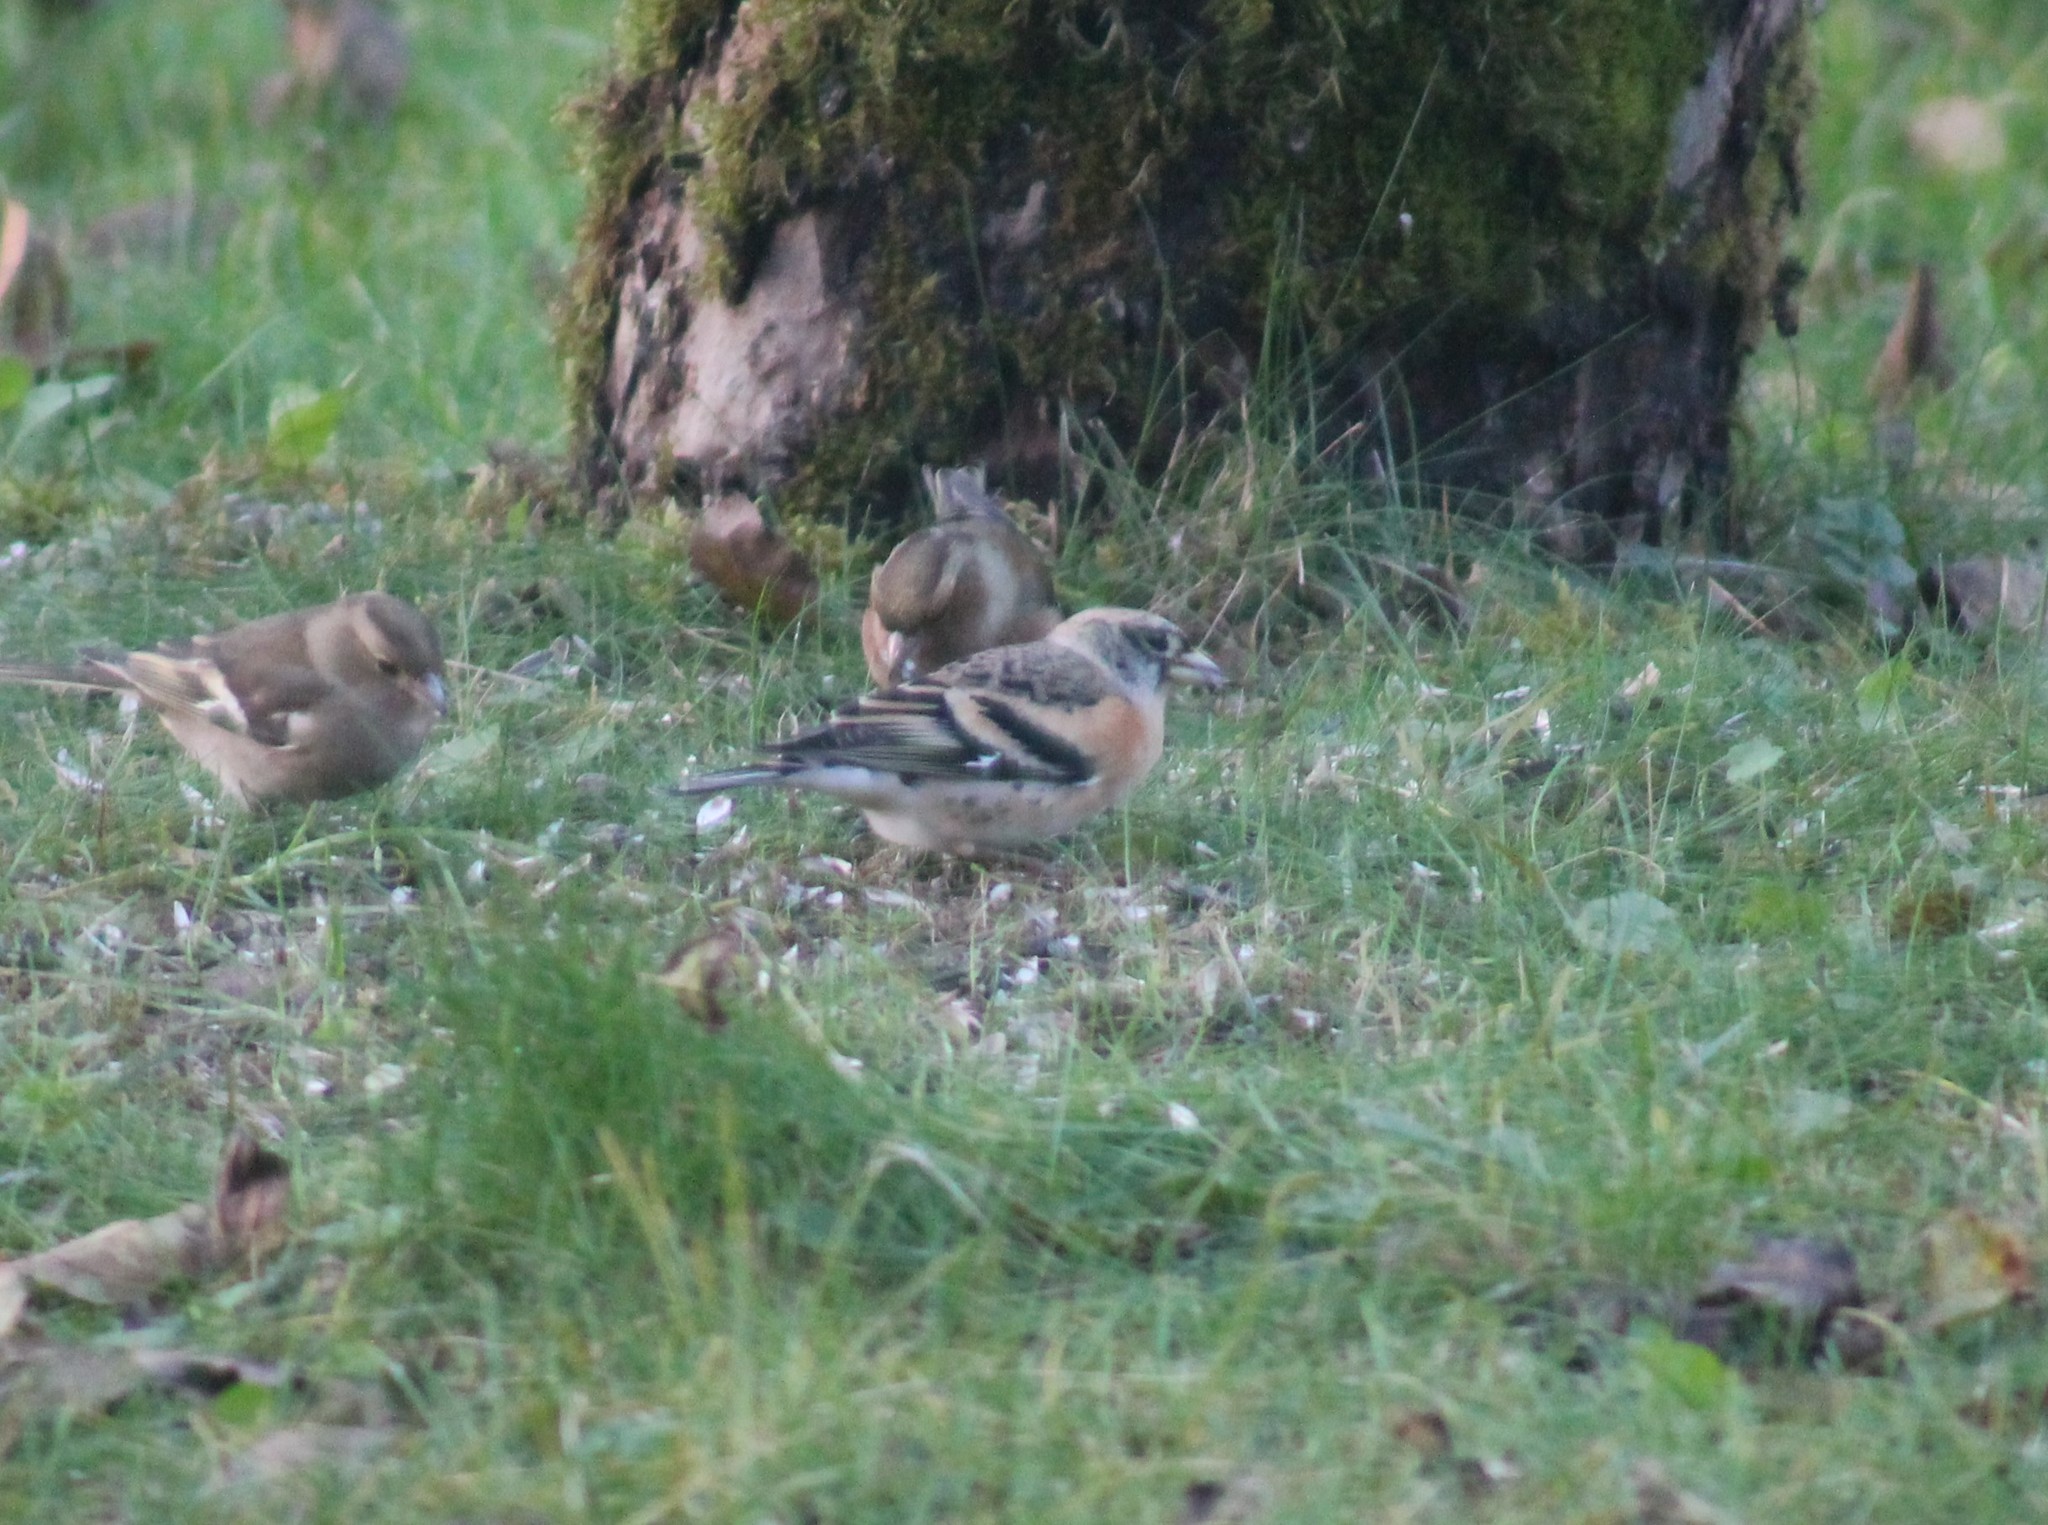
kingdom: Animalia
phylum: Chordata
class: Aves
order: Passeriformes
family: Fringillidae
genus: Fringilla
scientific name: Fringilla montifringilla
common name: Brambling
